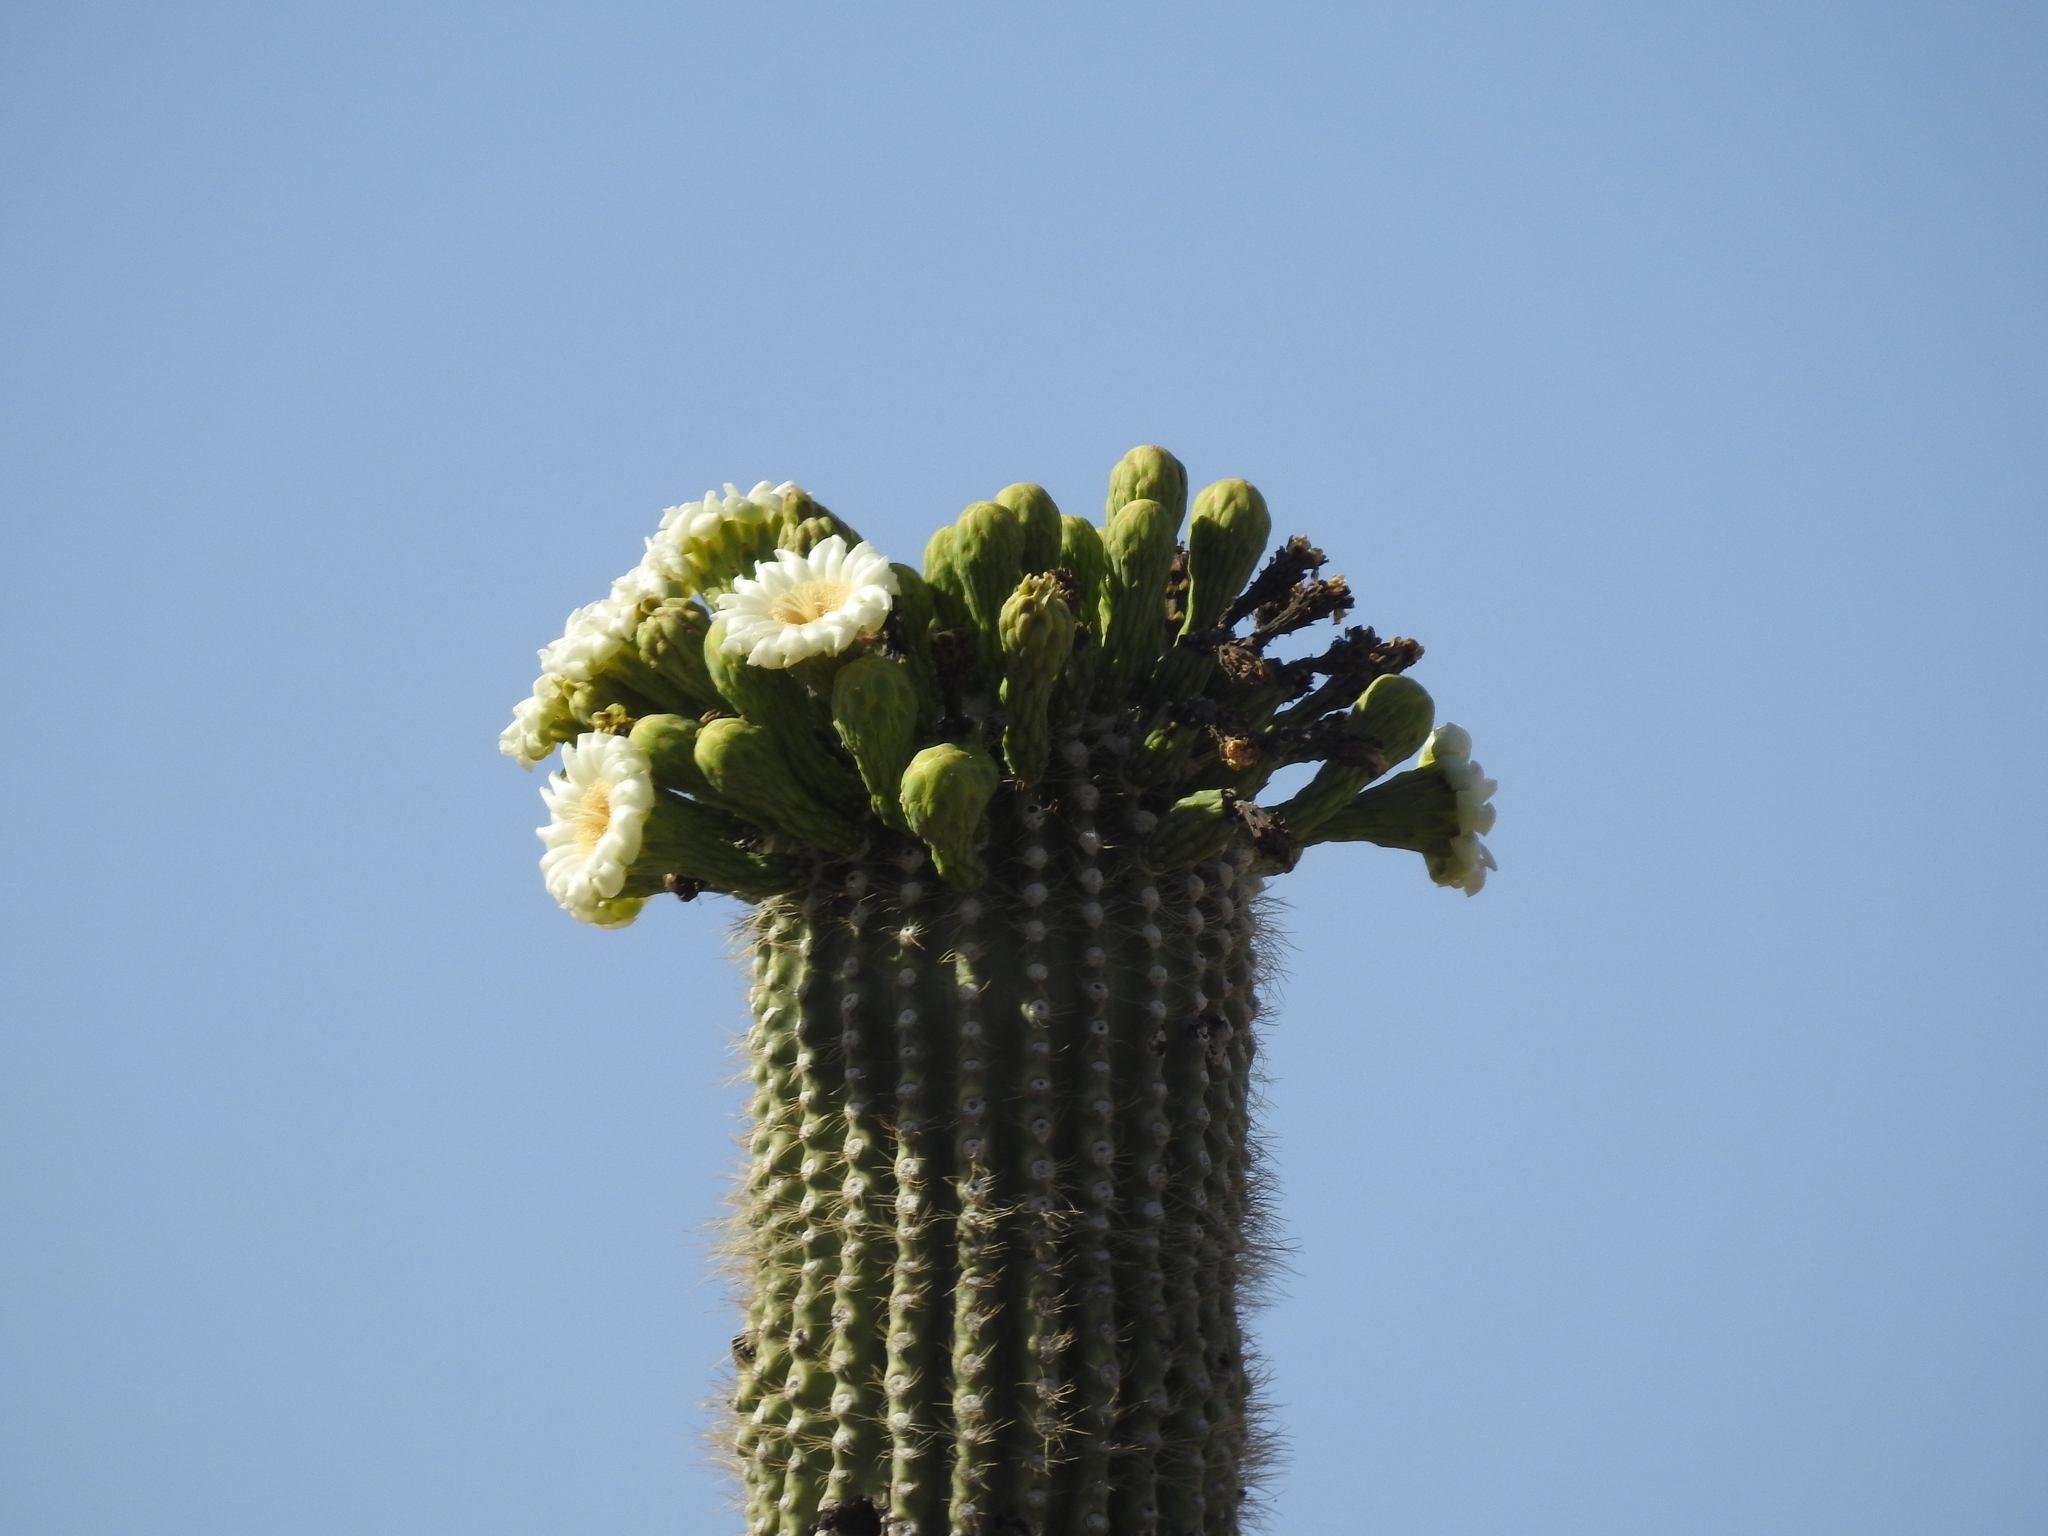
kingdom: Plantae
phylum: Tracheophyta
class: Magnoliopsida
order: Caryophyllales
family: Cactaceae
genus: Carnegiea
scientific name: Carnegiea gigantea
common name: Saguaro
